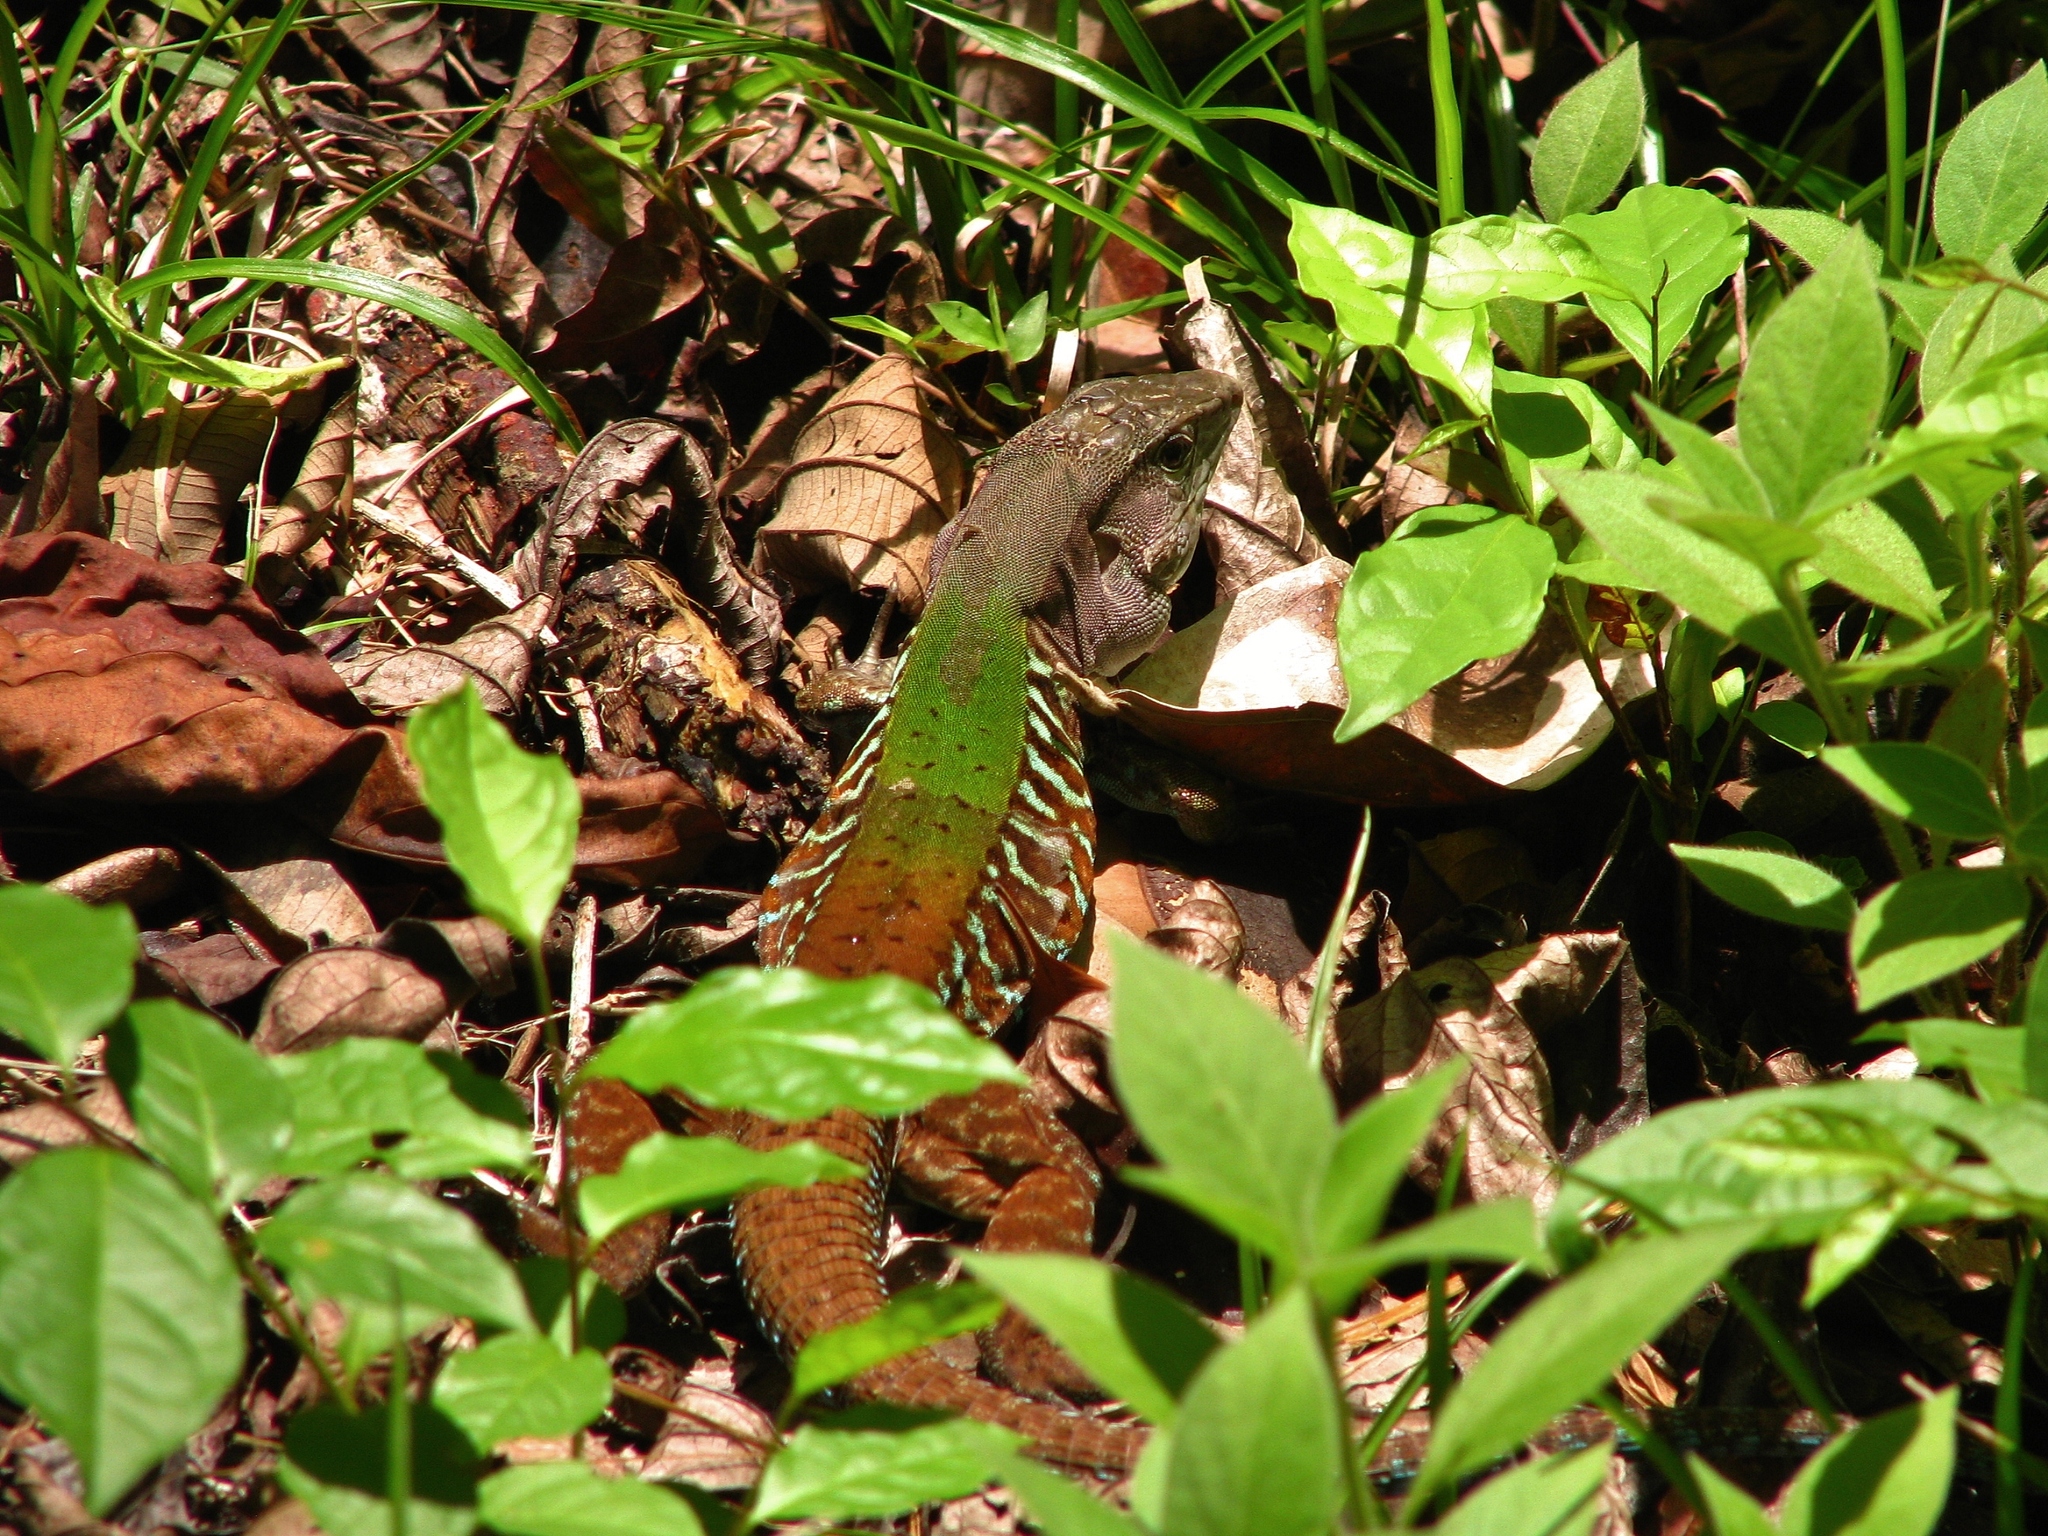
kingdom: Animalia
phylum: Chordata
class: Squamata
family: Teiidae
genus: Holcosus
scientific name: Holcosus hartwegi
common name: Rainbow ameiva
